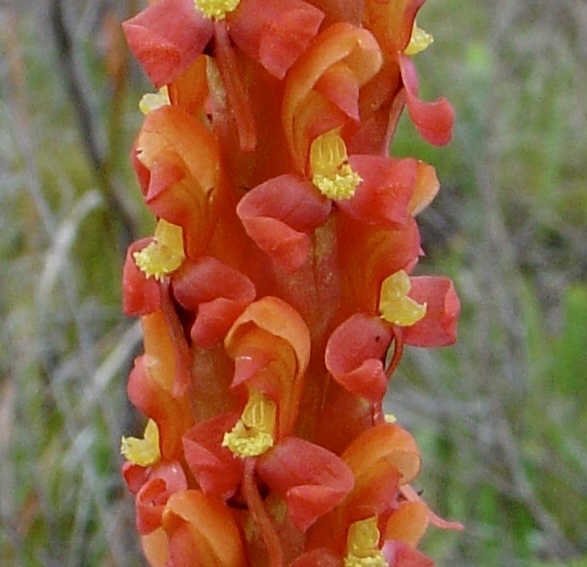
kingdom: Plantae
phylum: Tracheophyta
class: Liliopsida
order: Asparagales
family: Orchidaceae
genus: Disa
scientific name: Disa chrysostachya
